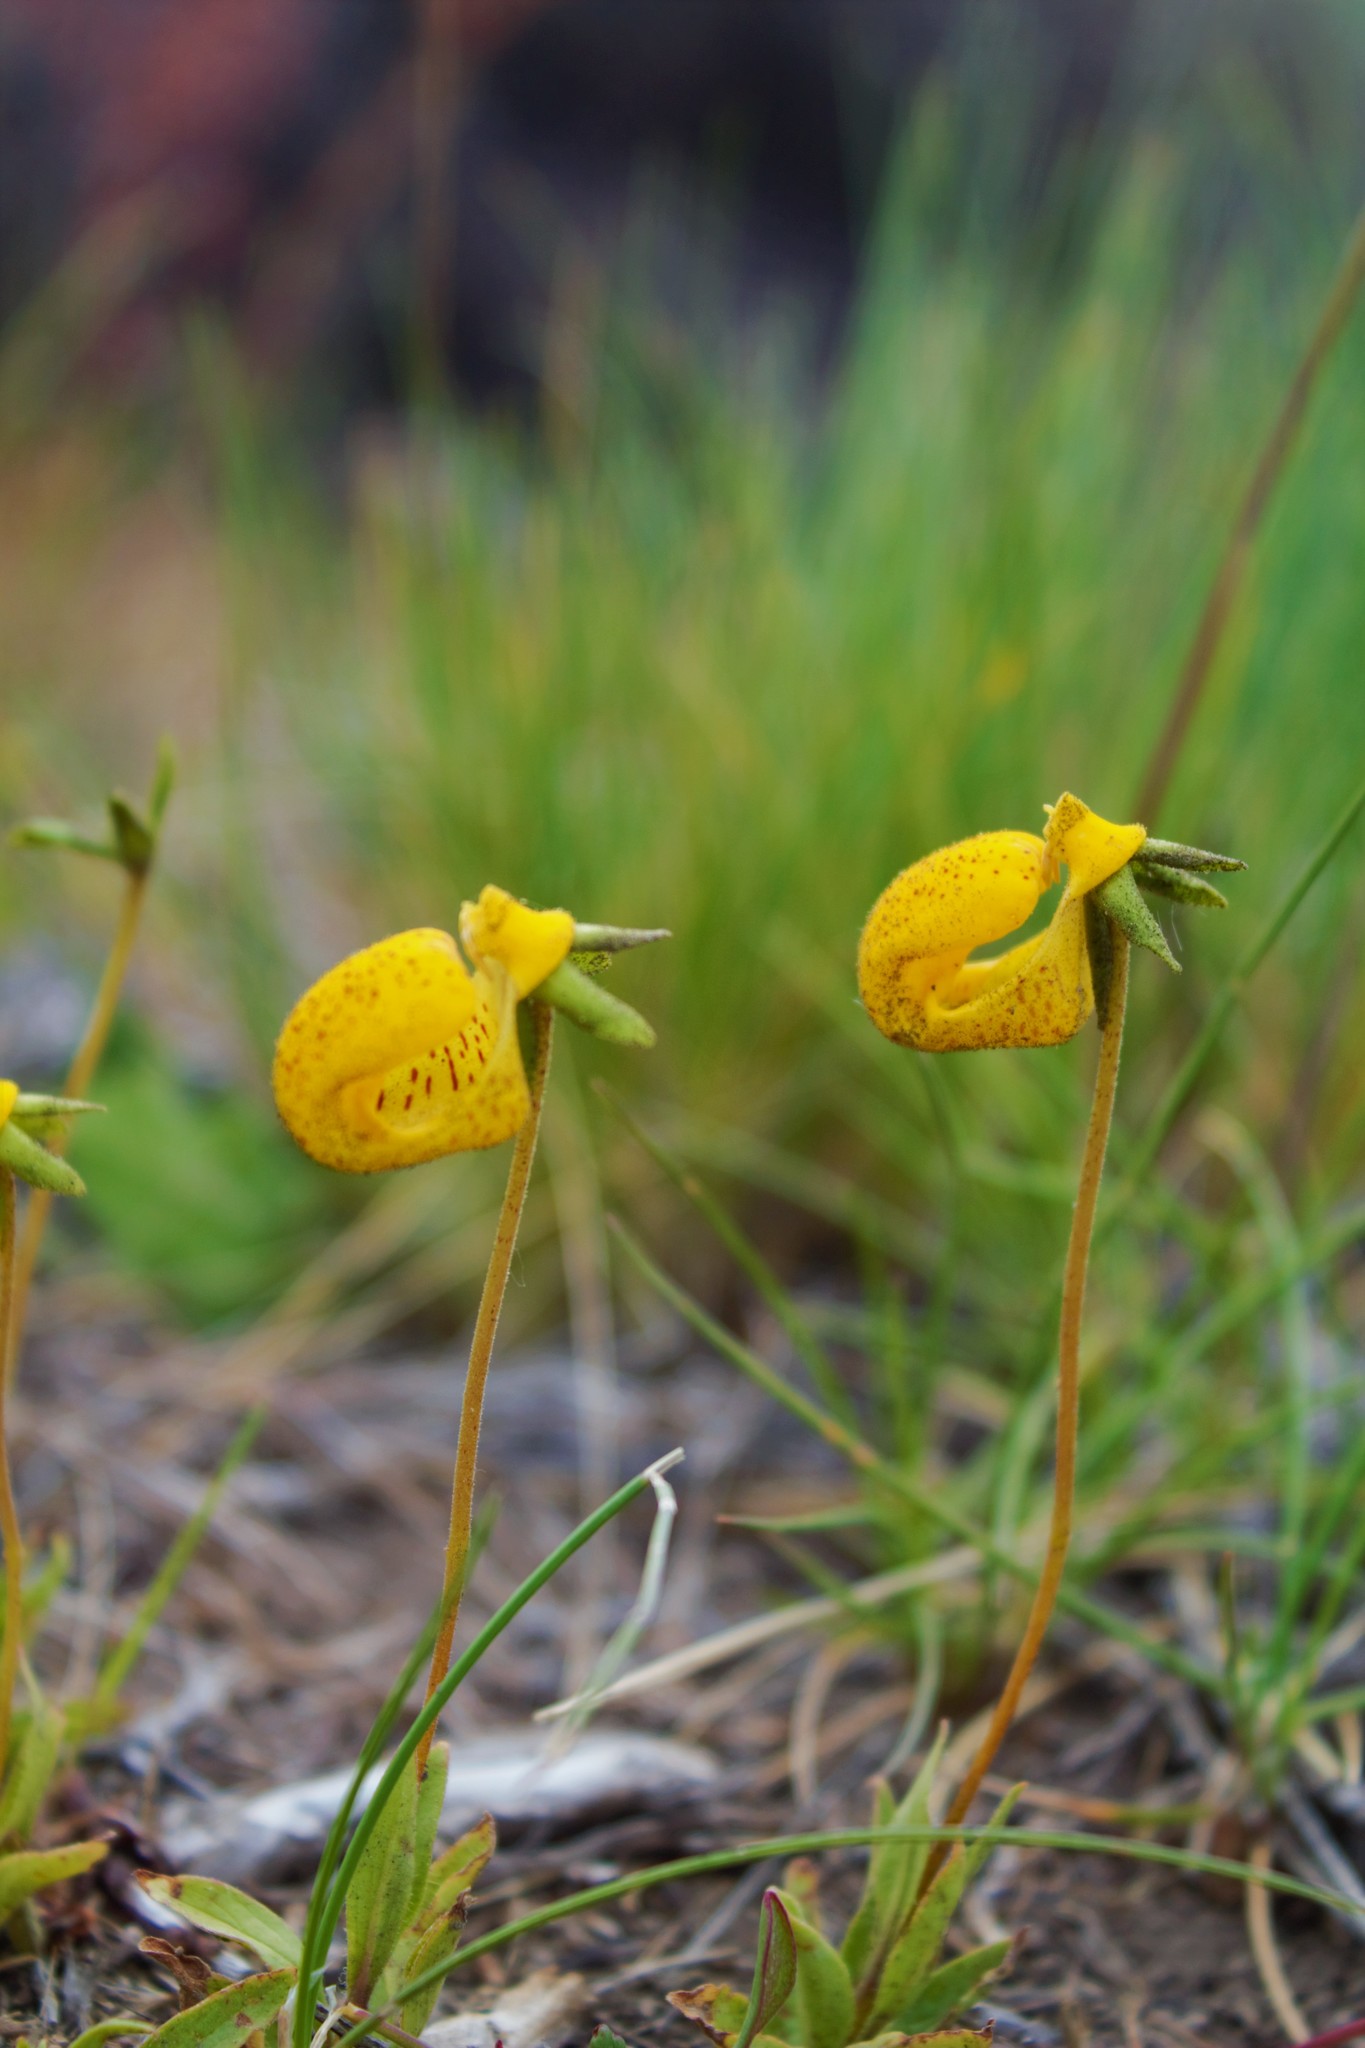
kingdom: Plantae
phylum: Tracheophyta
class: Magnoliopsida
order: Lamiales
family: Calceolariaceae
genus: Calceolaria
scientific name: Calceolaria polyrhiza
